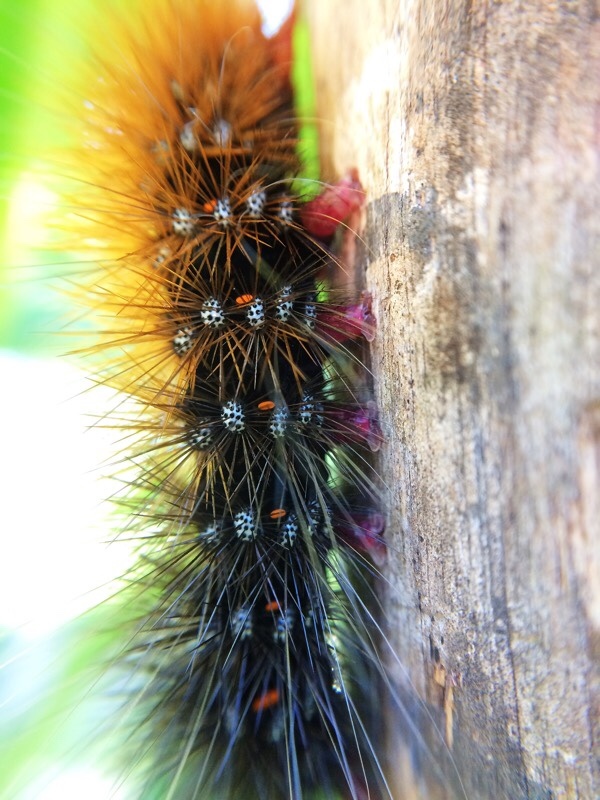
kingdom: Animalia
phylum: Arthropoda
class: Insecta
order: Lepidoptera
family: Erebidae
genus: Rhodogastria
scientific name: Rhodogastria similis
